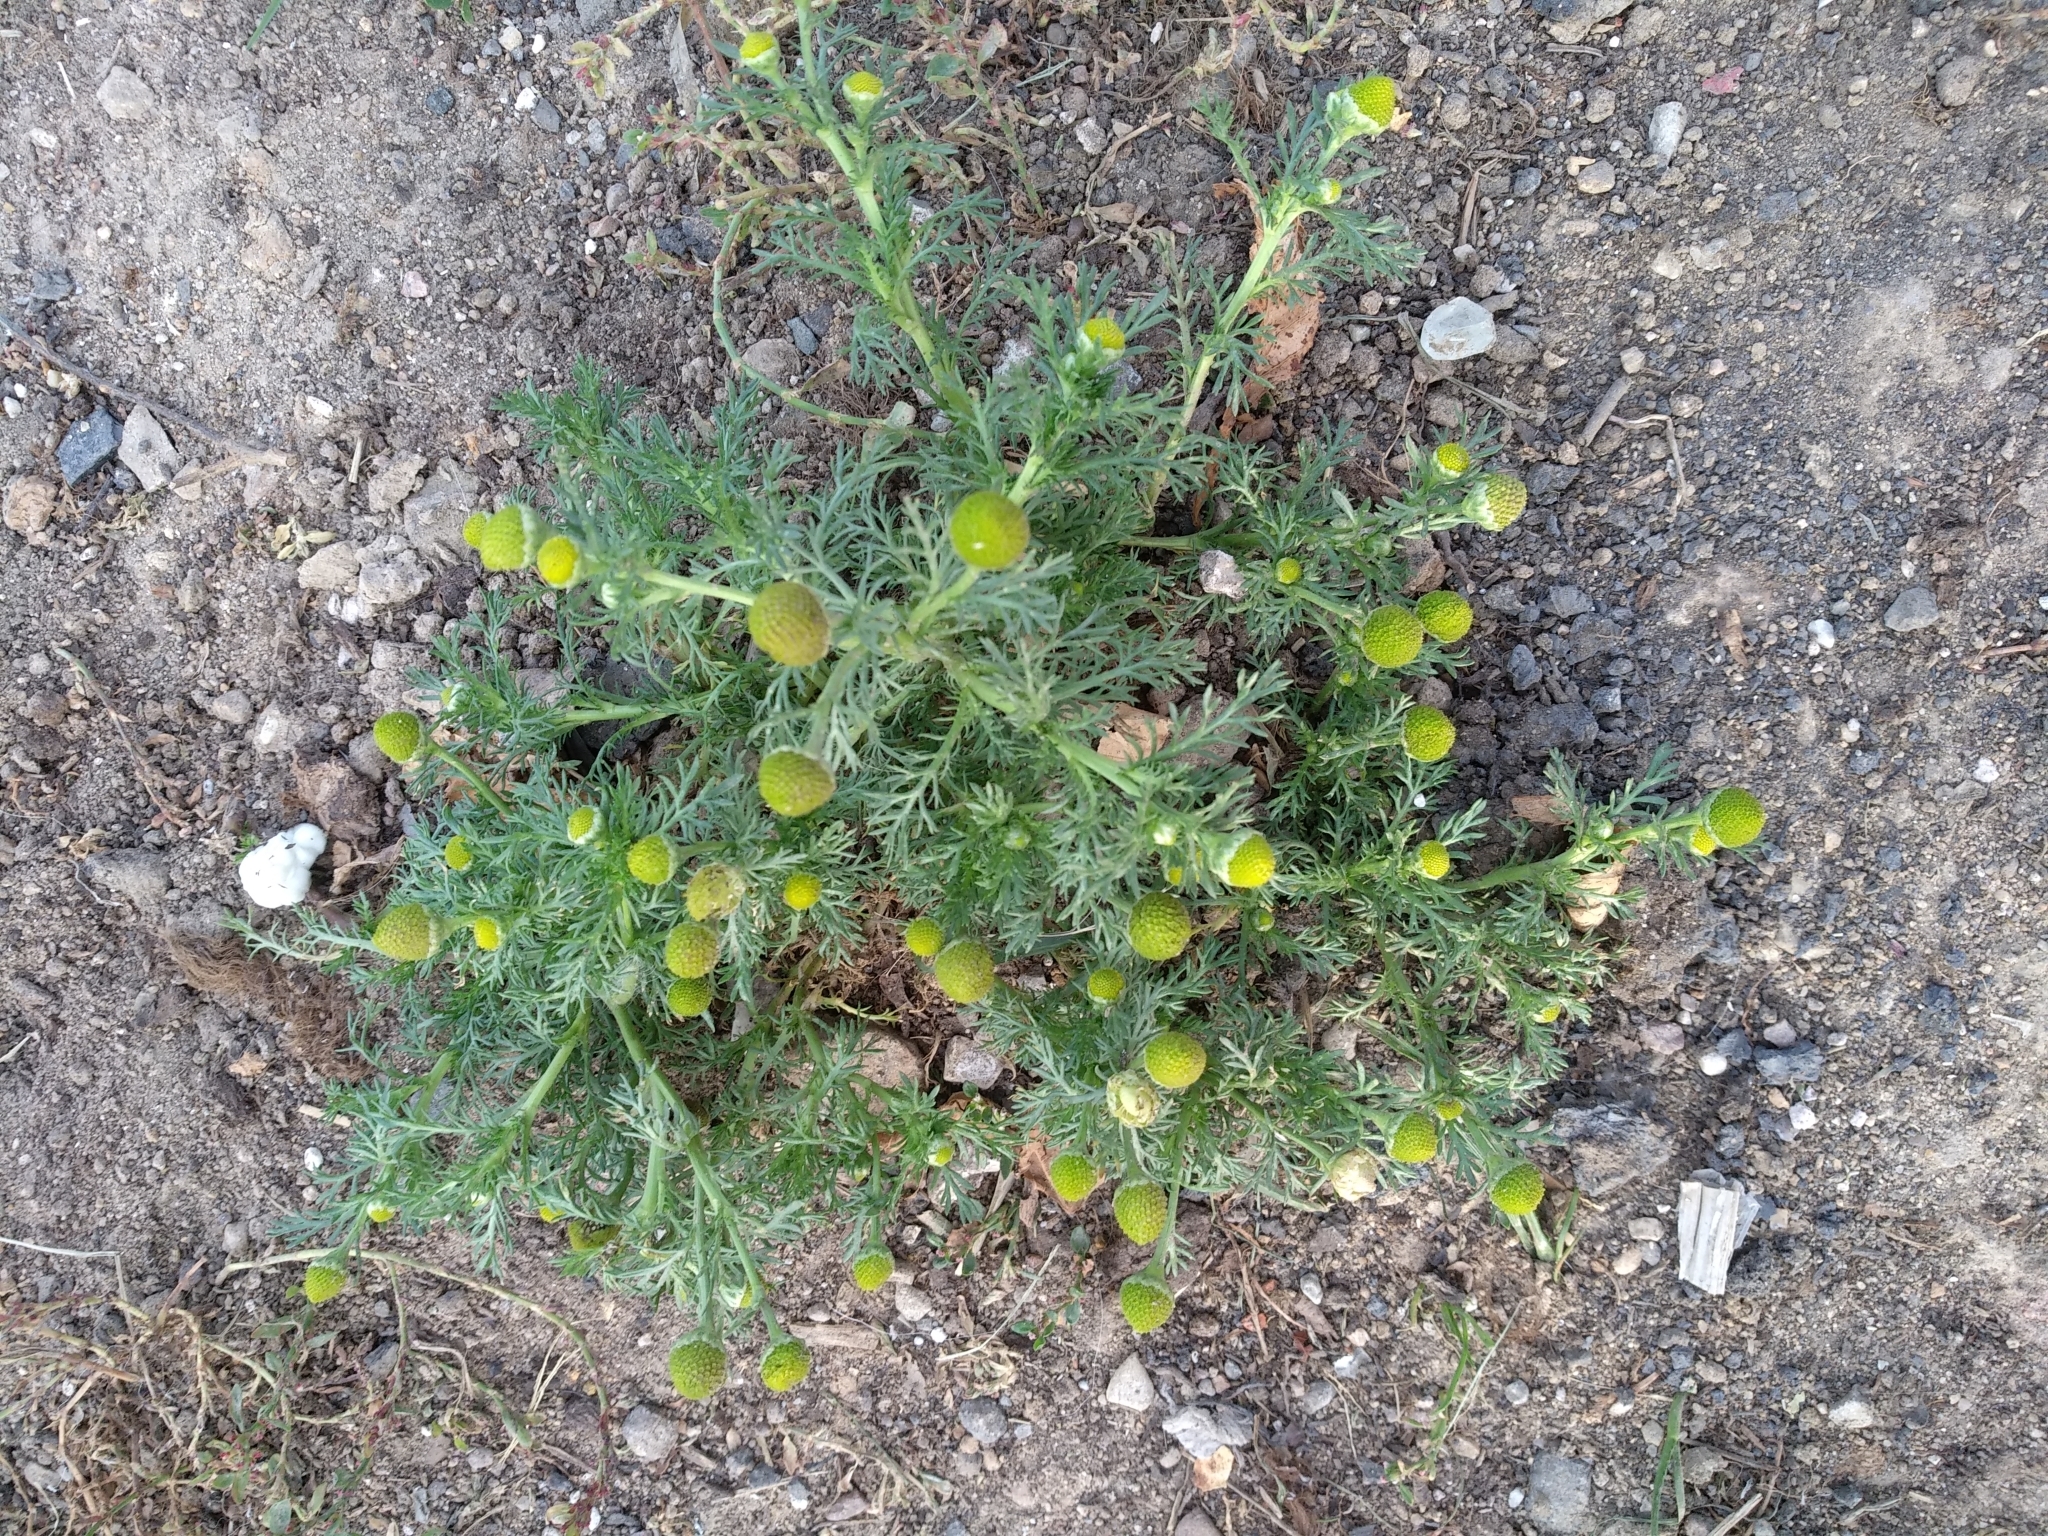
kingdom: Plantae
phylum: Tracheophyta
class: Magnoliopsida
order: Asterales
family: Asteraceae
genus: Matricaria
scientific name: Matricaria discoidea
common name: Disc mayweed
